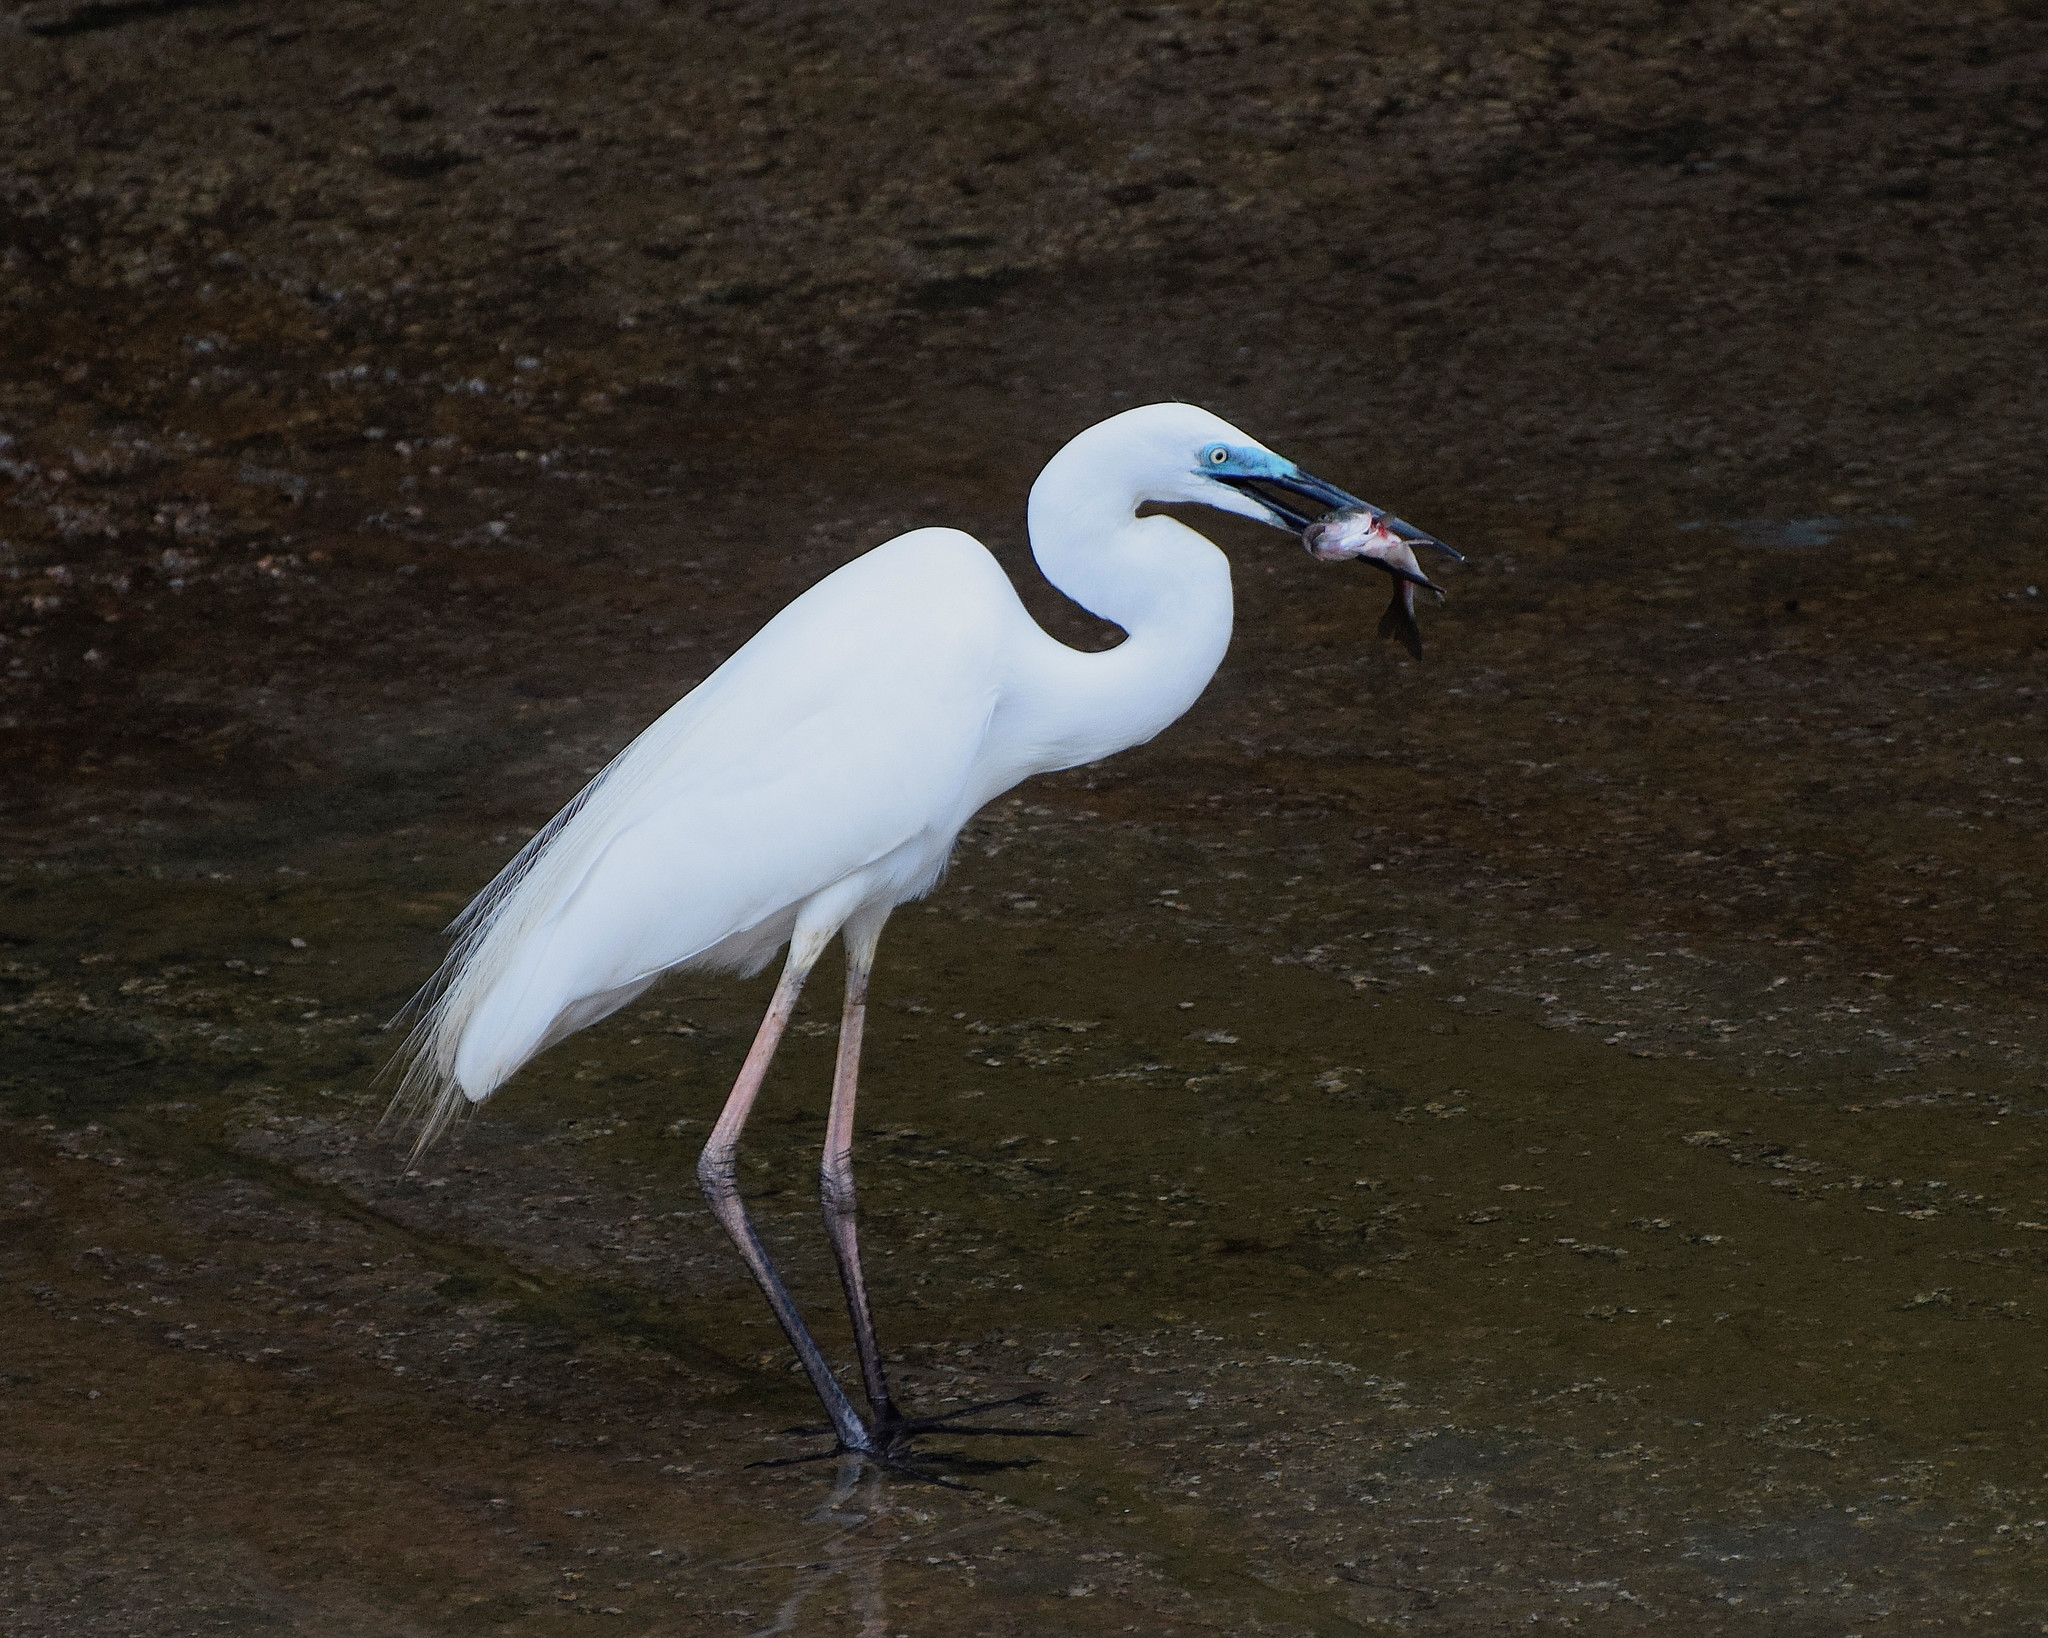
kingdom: Animalia
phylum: Chordata
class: Aves
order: Pelecaniformes
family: Ardeidae
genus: Ardea
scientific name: Ardea alba
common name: Great egret
